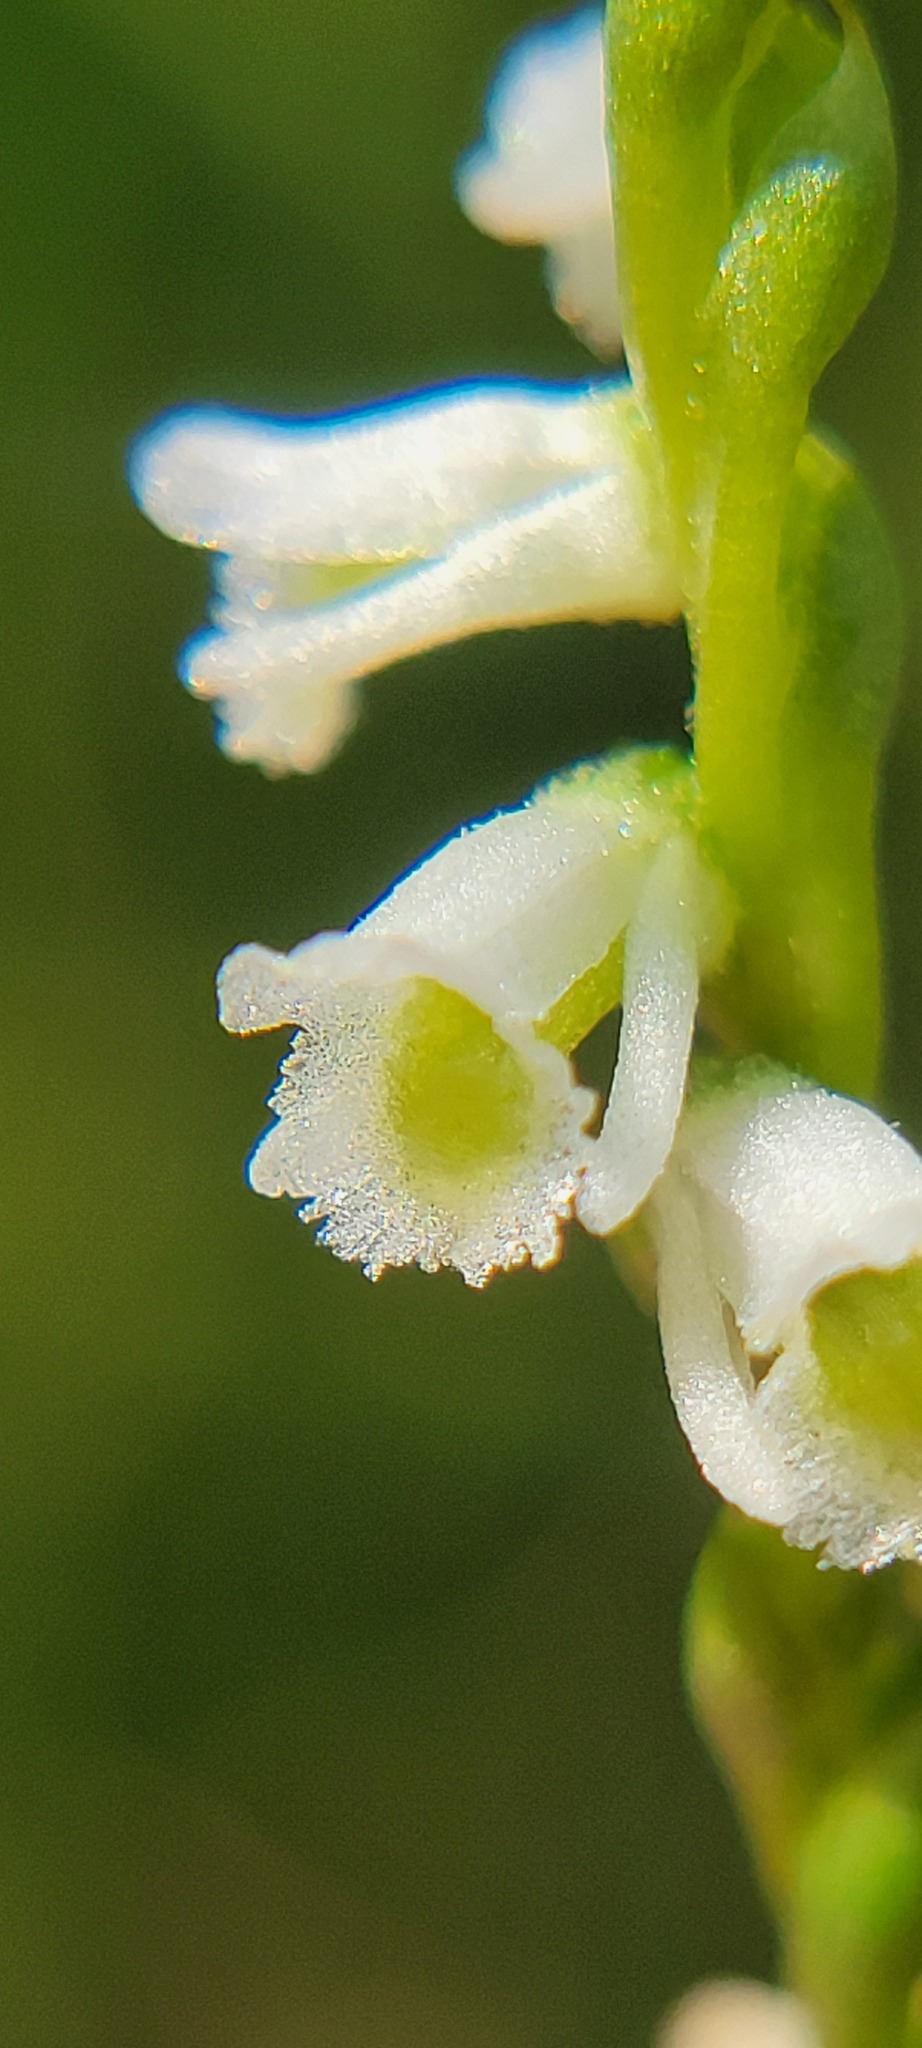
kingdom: Plantae
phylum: Tracheophyta
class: Liliopsida
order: Asparagales
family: Orchidaceae
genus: Spiranthes
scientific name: Spiranthes lacera
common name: Northern slender ladies'-tresses
